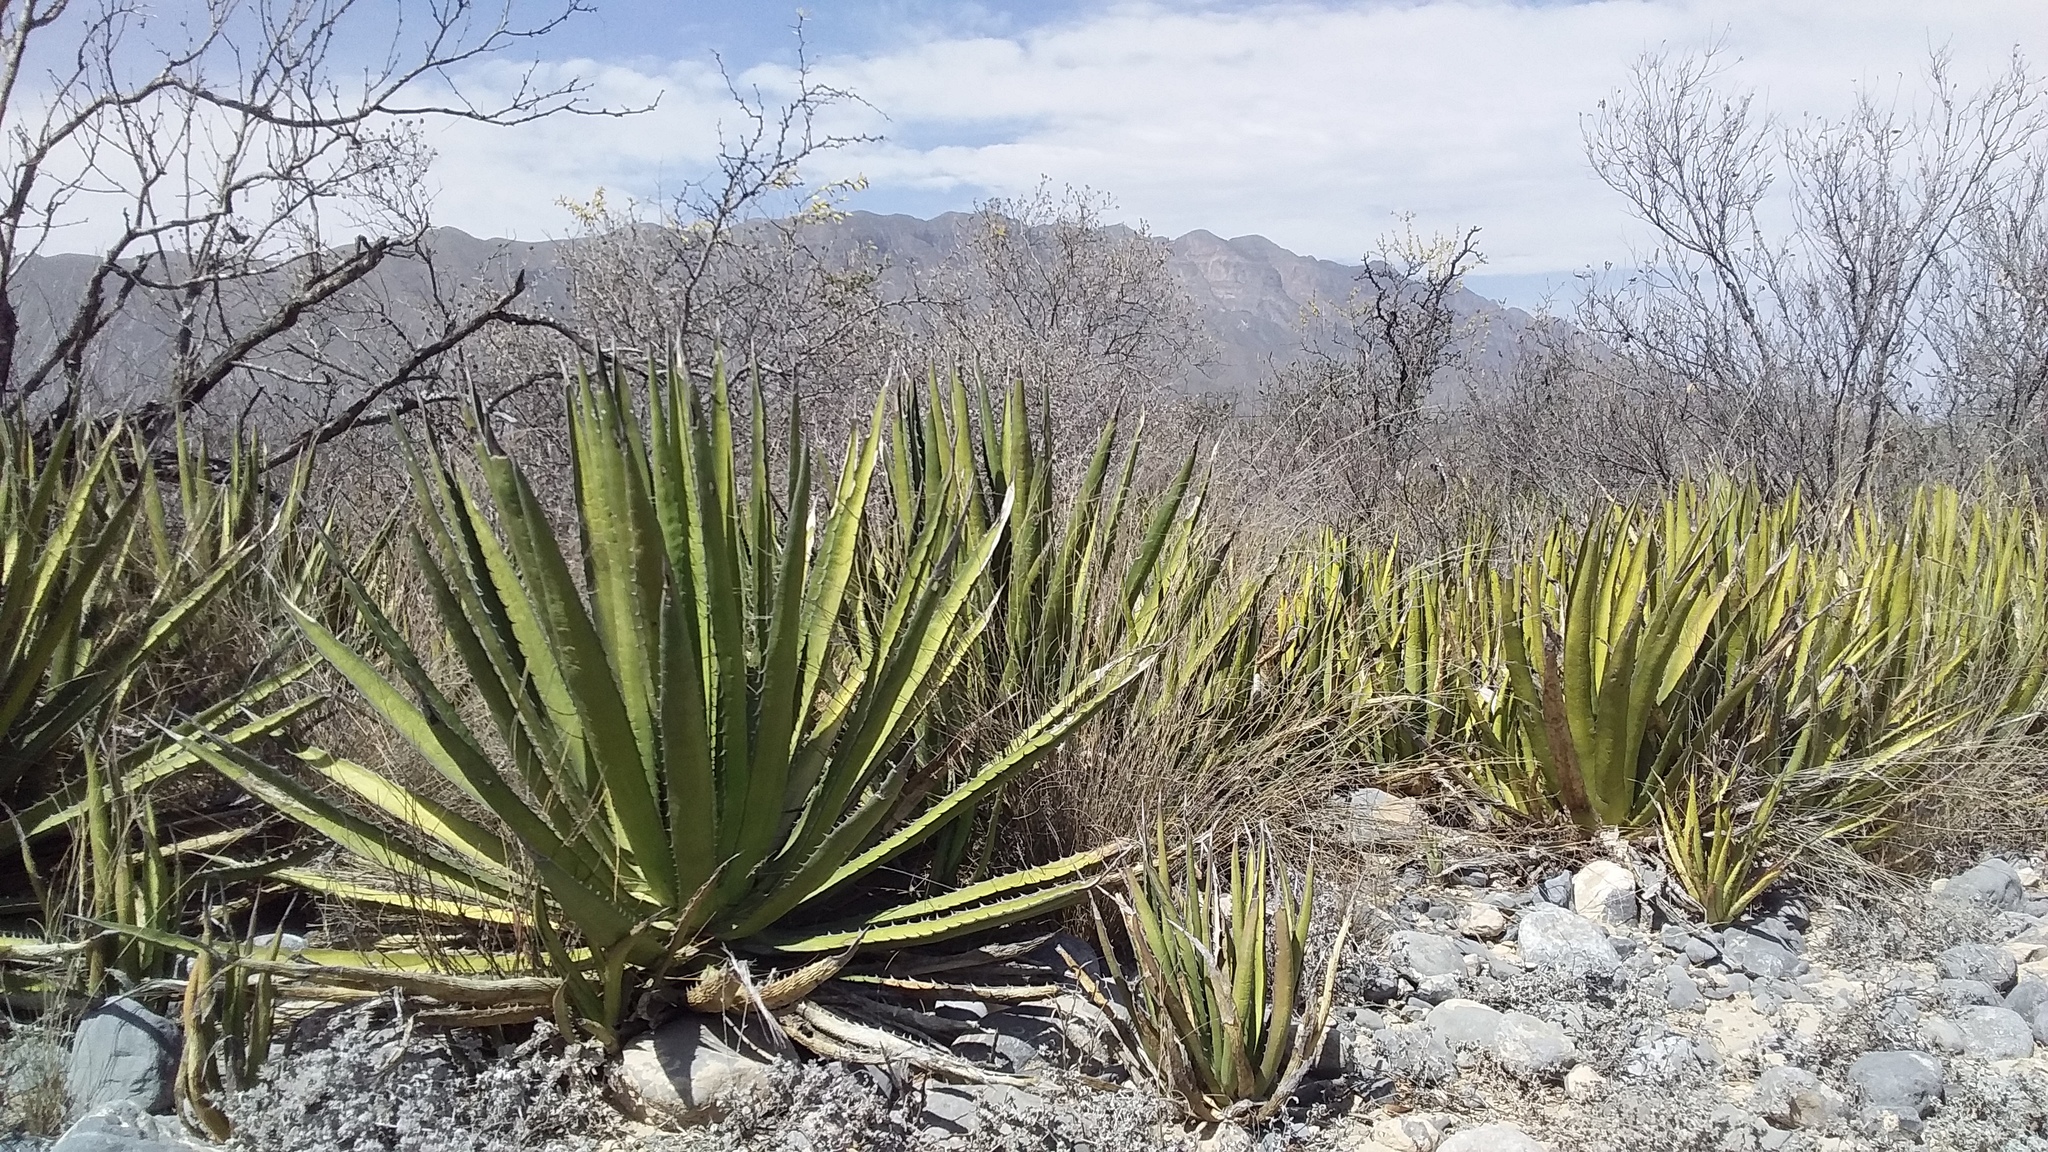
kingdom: Plantae
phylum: Tracheophyta
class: Liliopsida
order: Asparagales
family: Asparagaceae
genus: Agave
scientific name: Agave lechuguilla
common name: Lecheguilla agave
